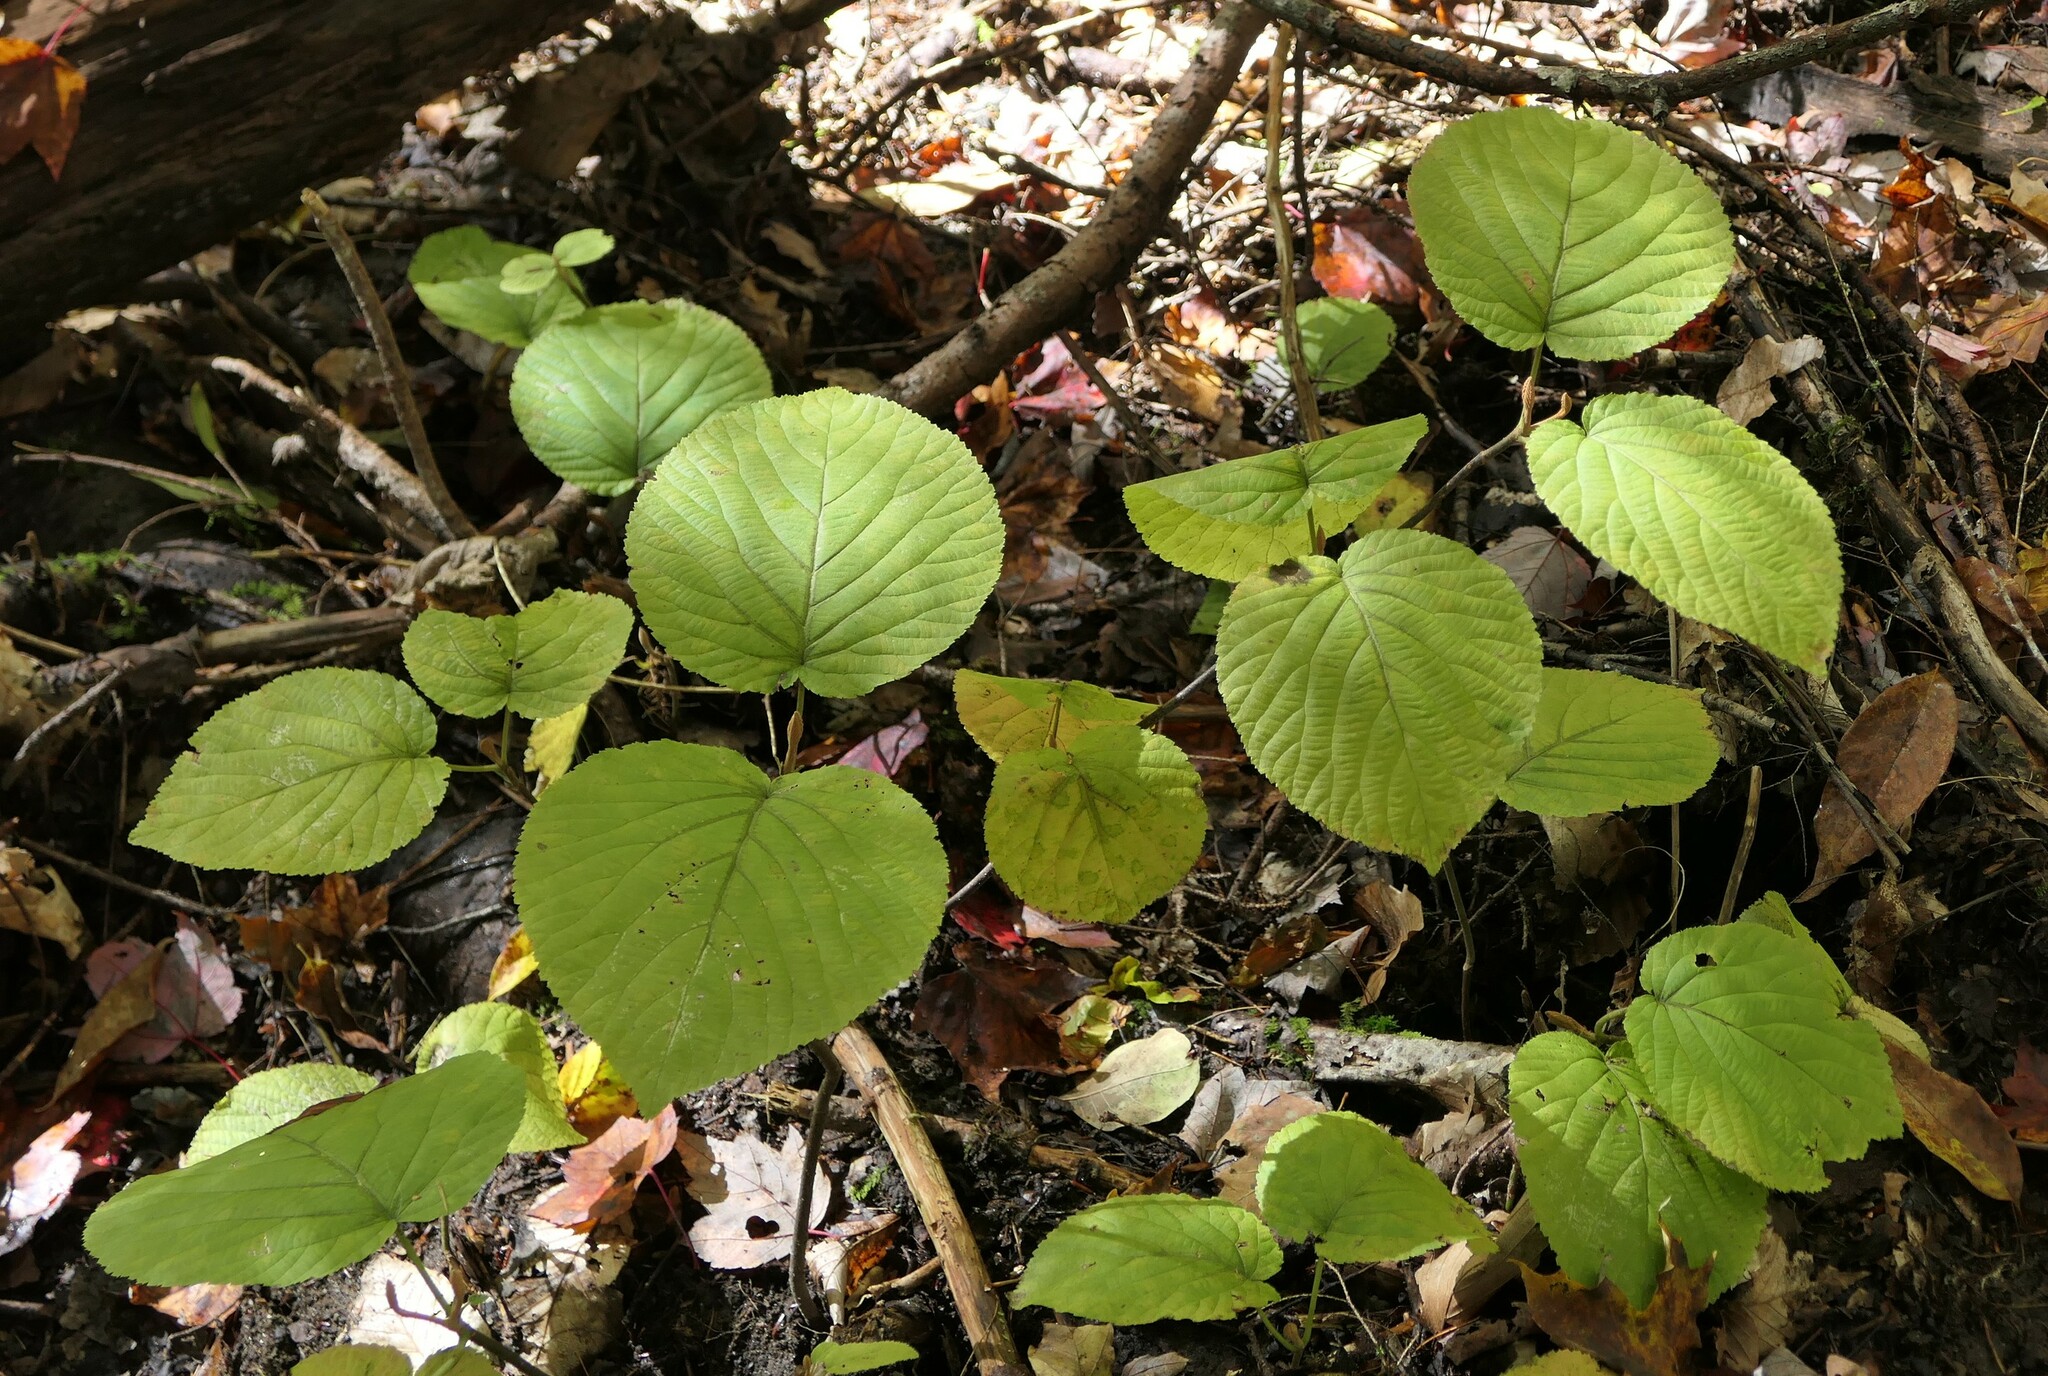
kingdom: Plantae
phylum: Tracheophyta
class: Magnoliopsida
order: Dipsacales
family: Viburnaceae
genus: Viburnum
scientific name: Viburnum lantanoides
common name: Hobblebush
